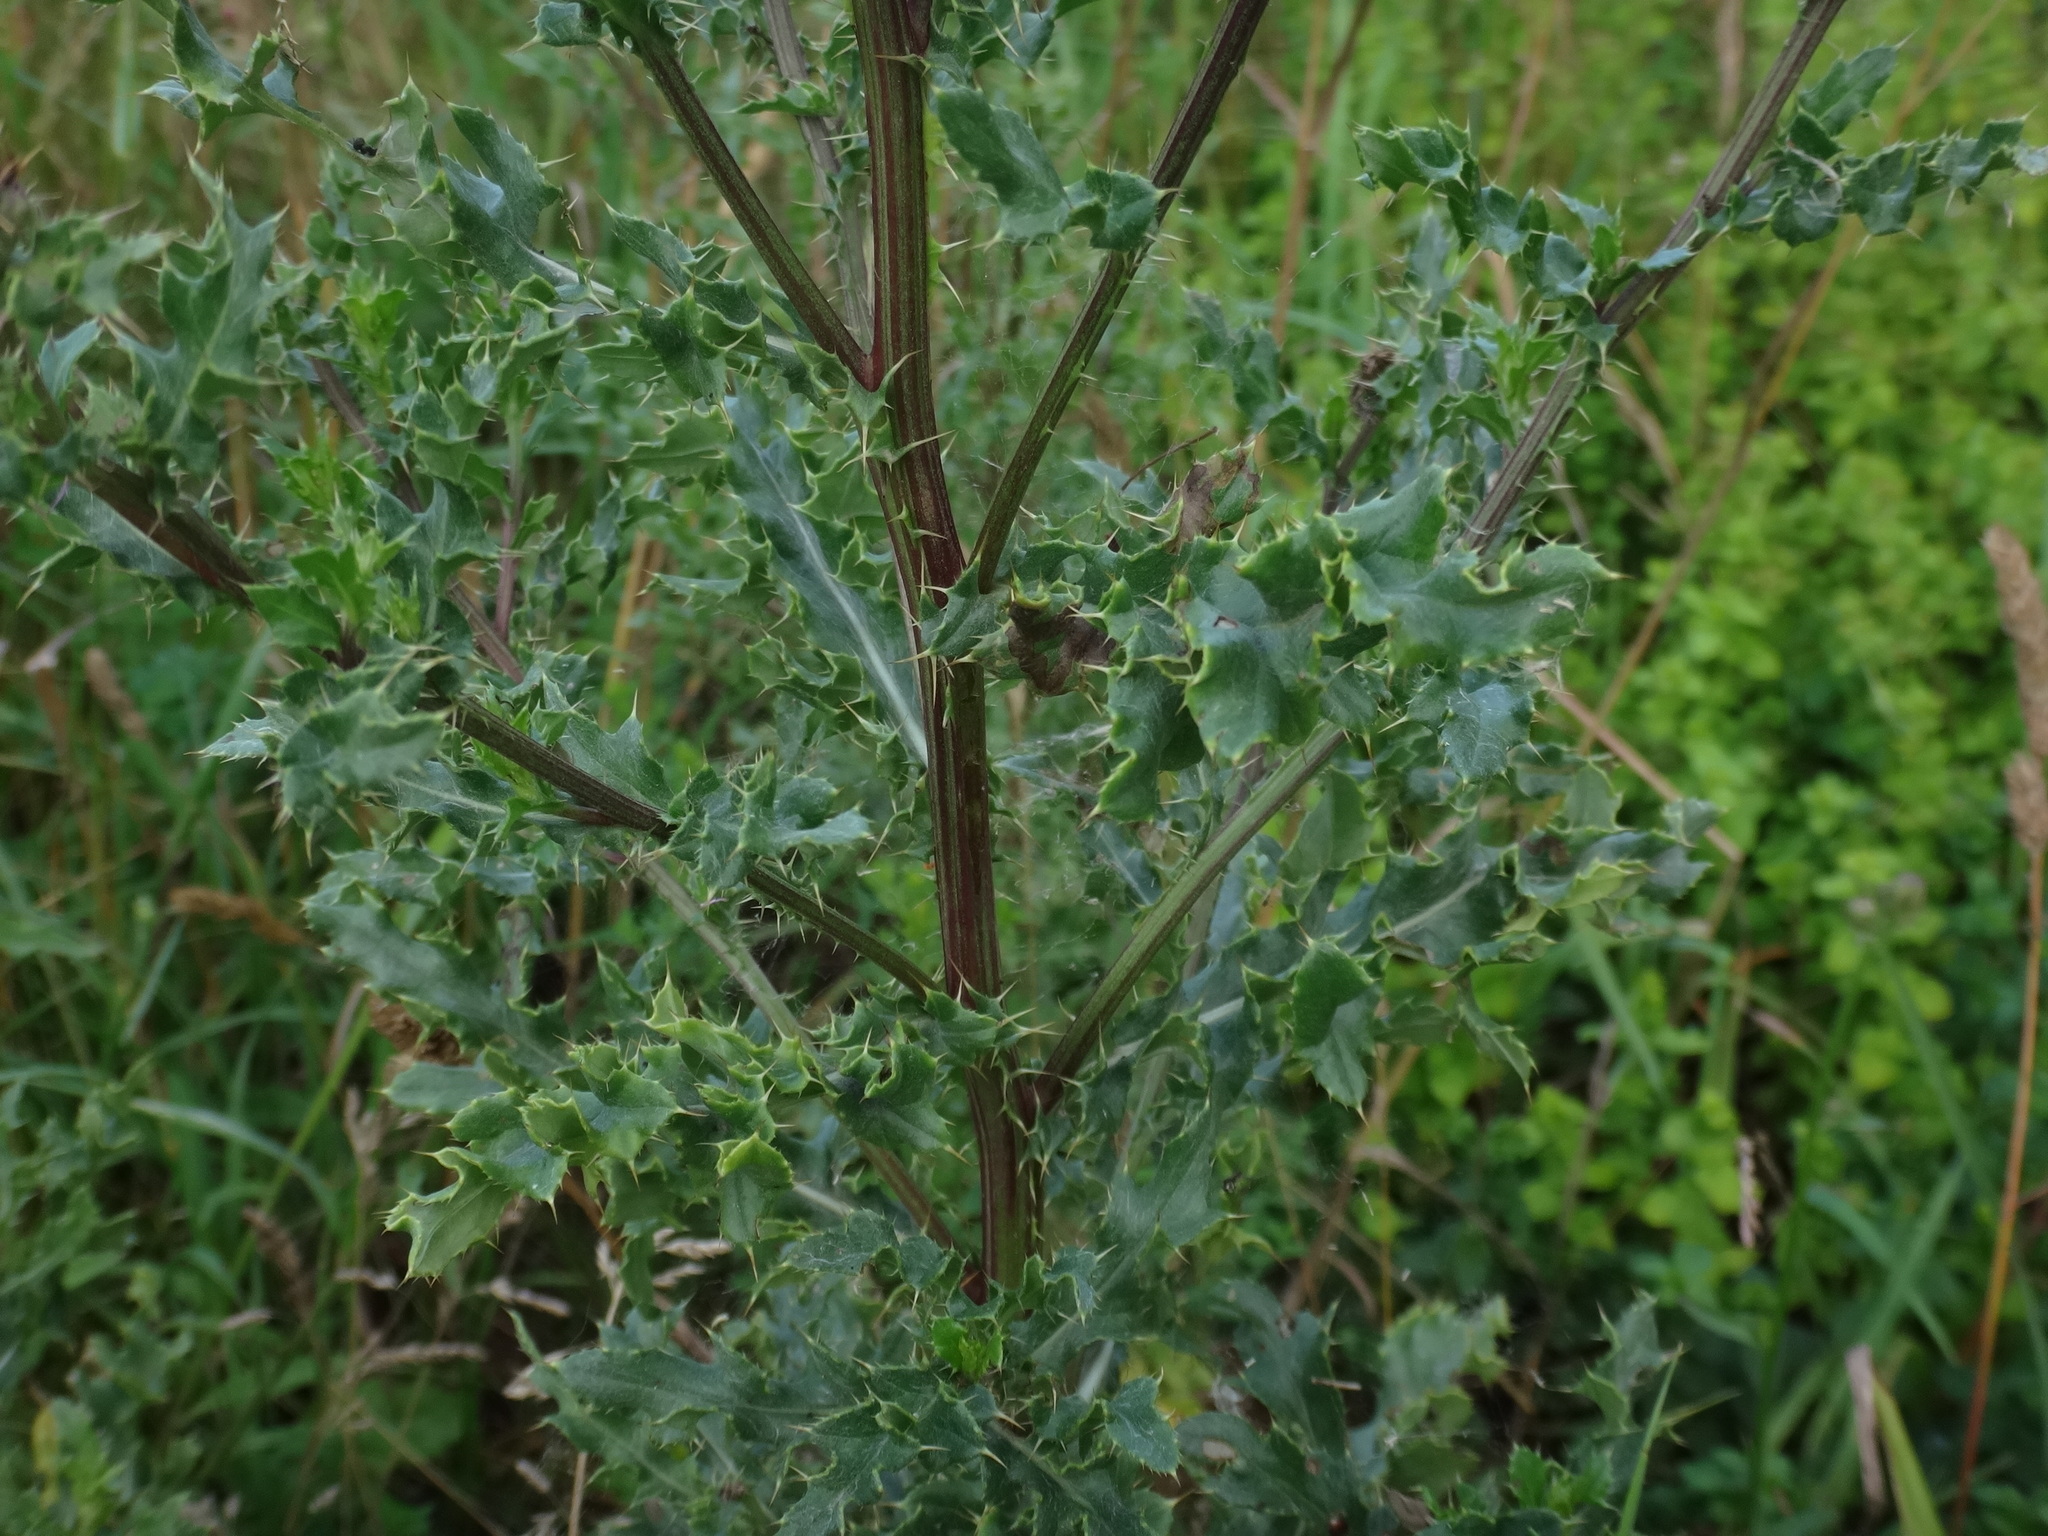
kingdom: Plantae
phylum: Tracheophyta
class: Magnoliopsida
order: Asterales
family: Asteraceae
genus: Cirsium
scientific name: Cirsium arvense
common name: Creeping thistle
